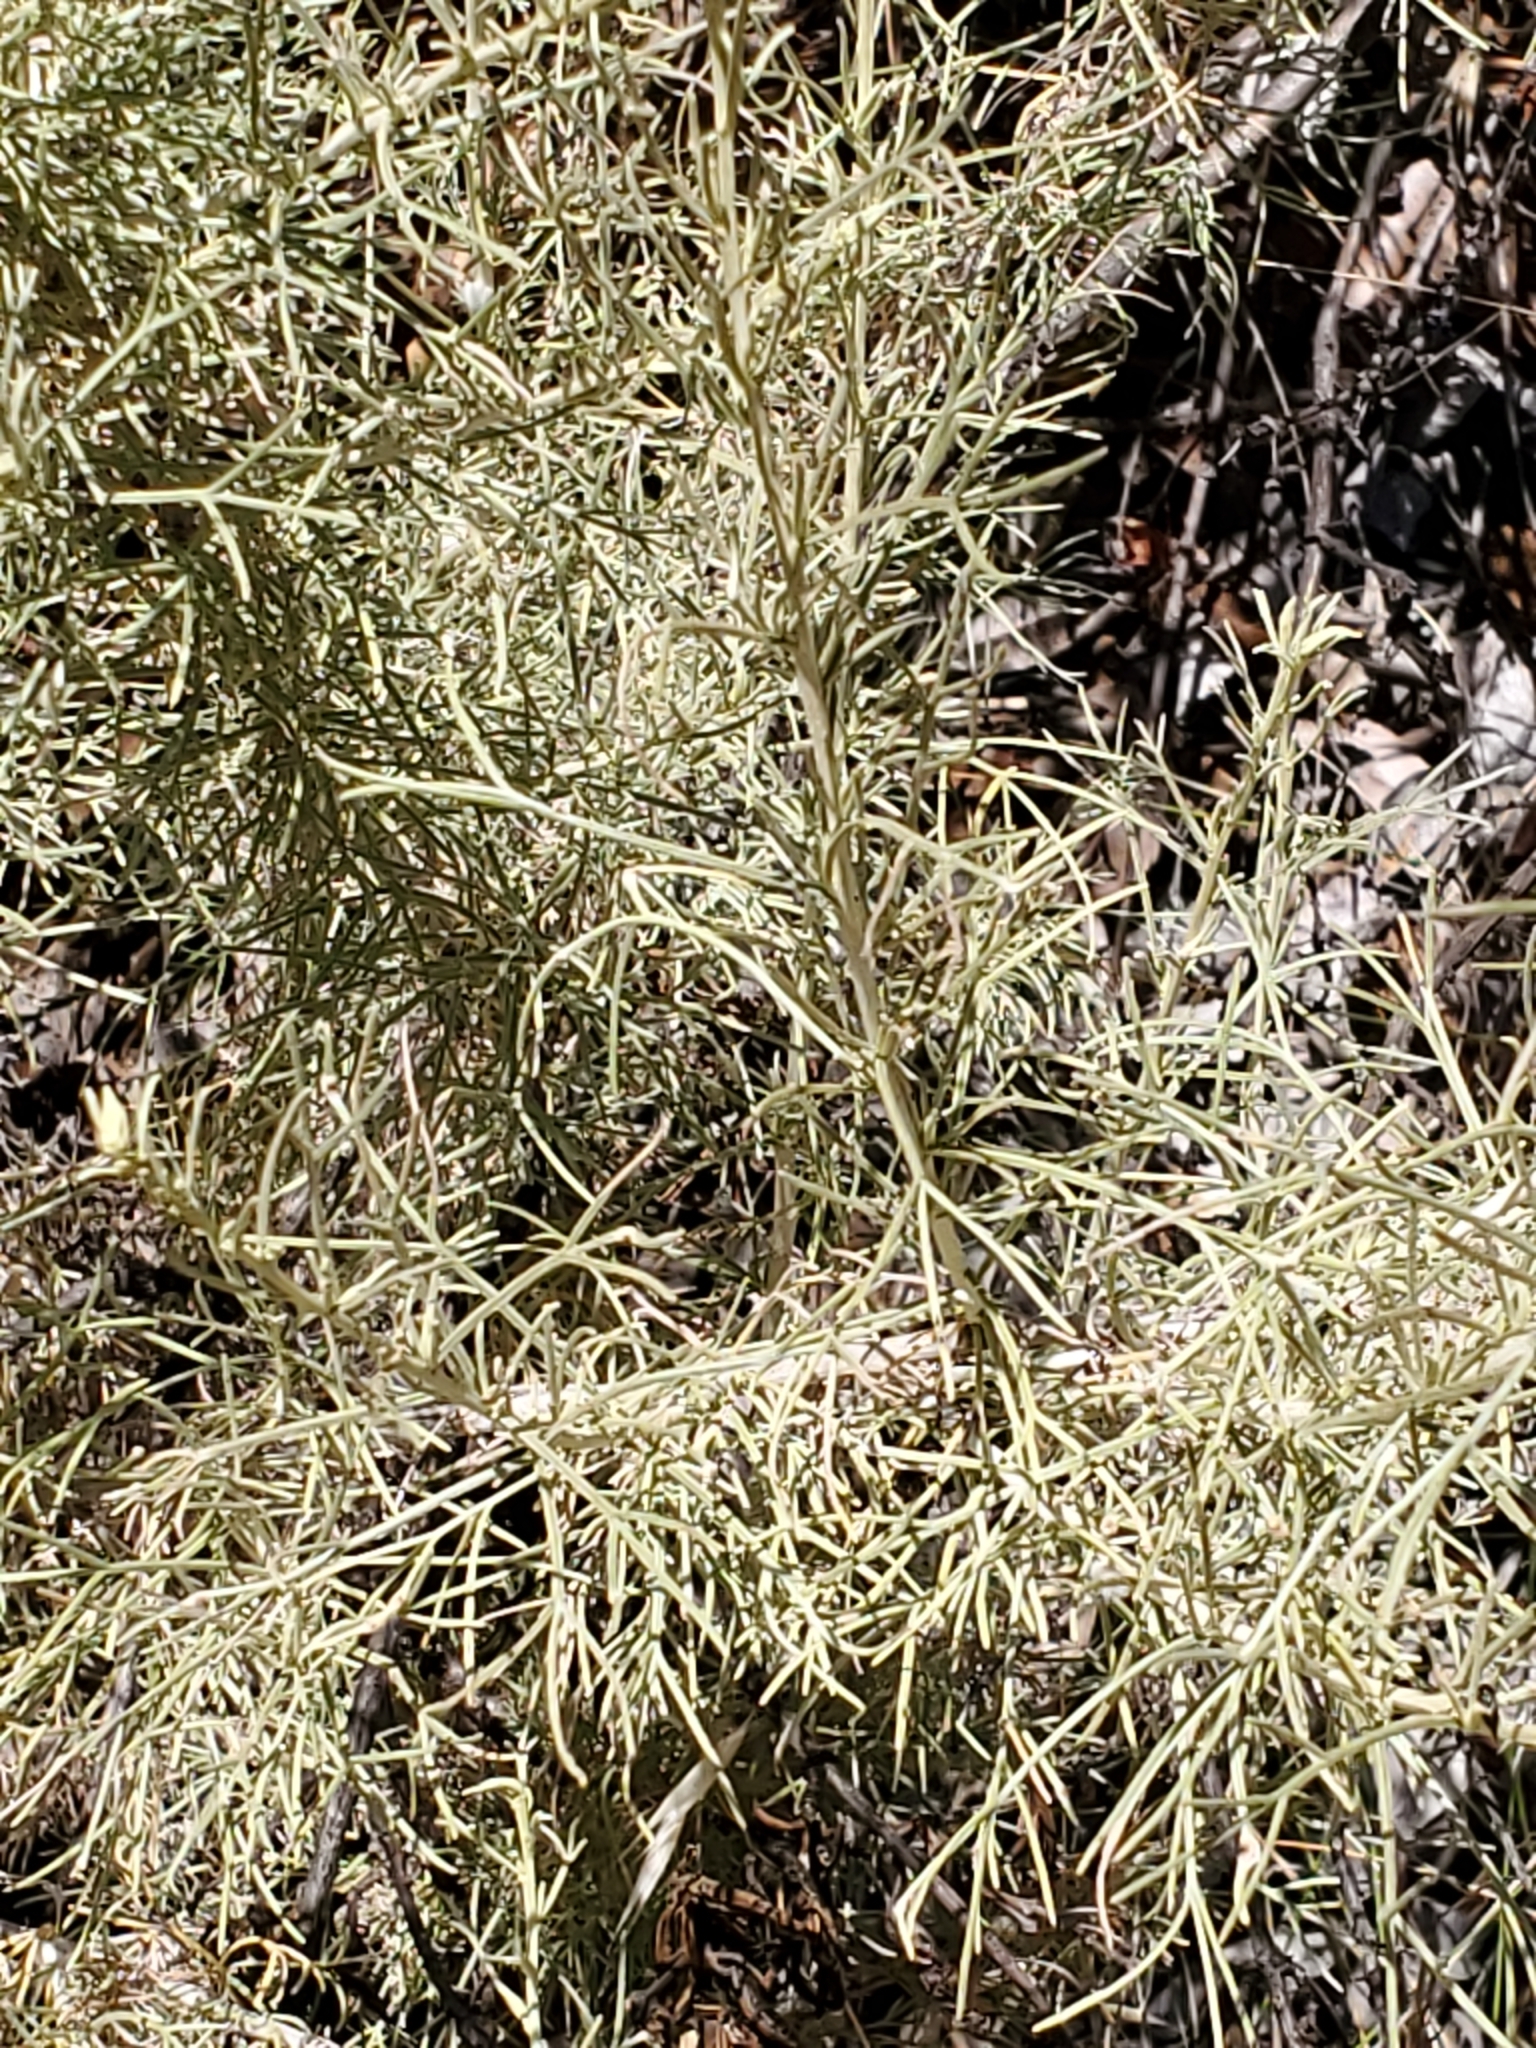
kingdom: Plantae
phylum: Tracheophyta
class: Magnoliopsida
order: Asterales
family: Asteraceae
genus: Artemisia
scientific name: Artemisia californica
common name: California sagebrush
